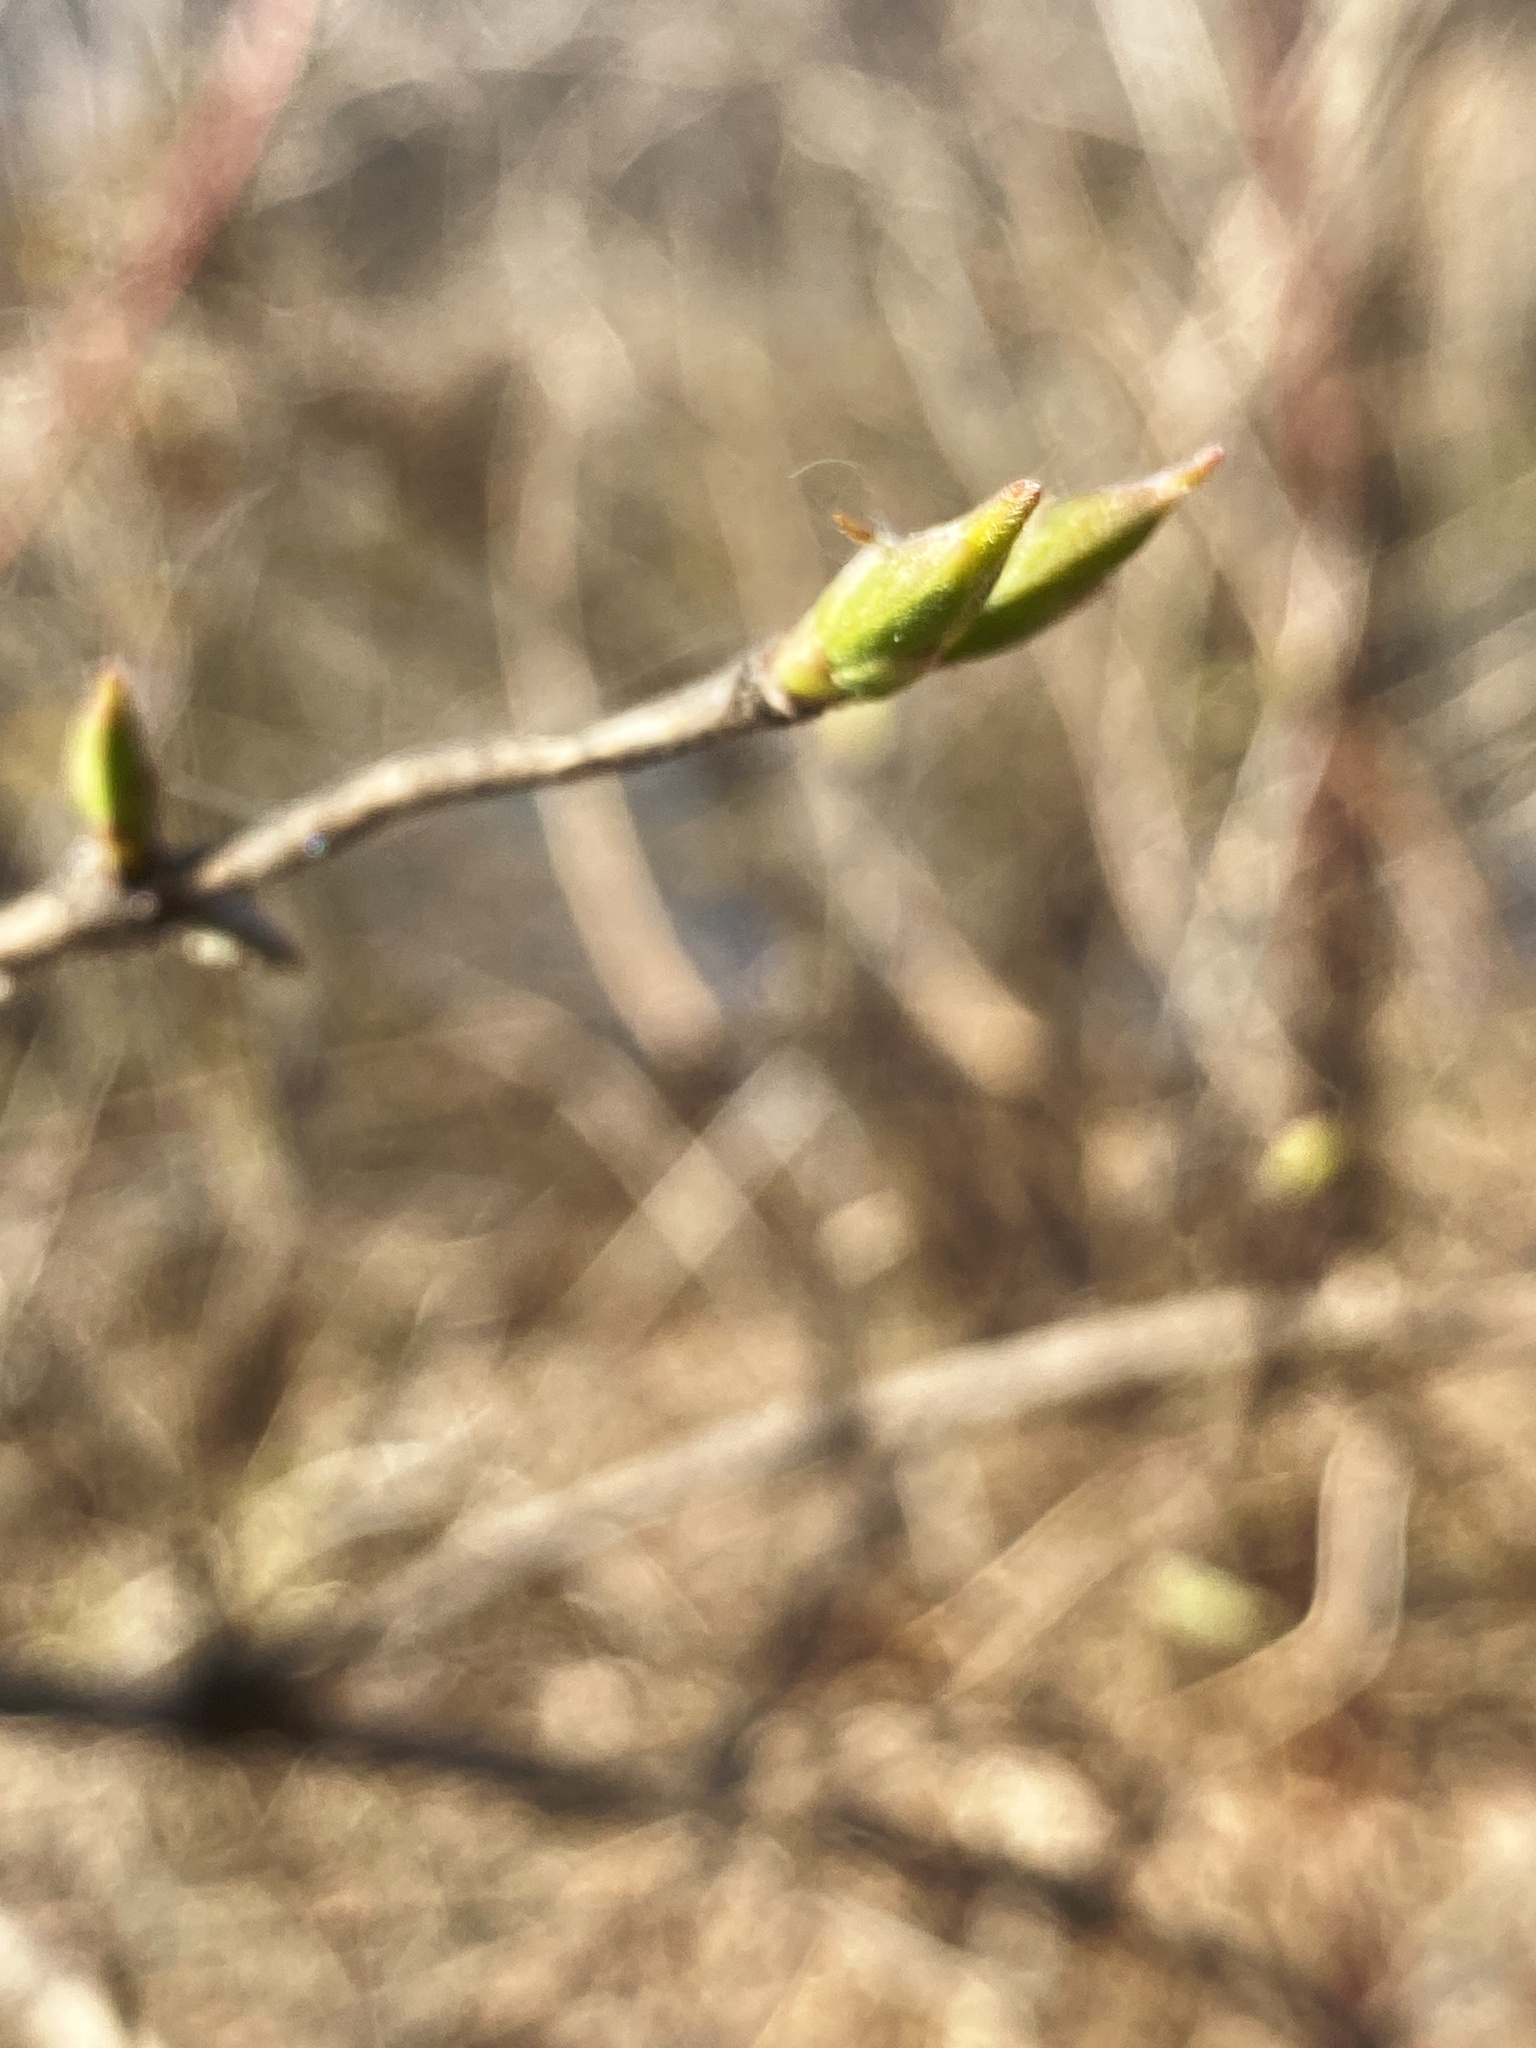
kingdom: Plantae
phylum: Tracheophyta
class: Magnoliopsida
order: Dipsacales
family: Caprifoliaceae
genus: Lonicera
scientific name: Lonicera maackii
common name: Amur honeysuckle
